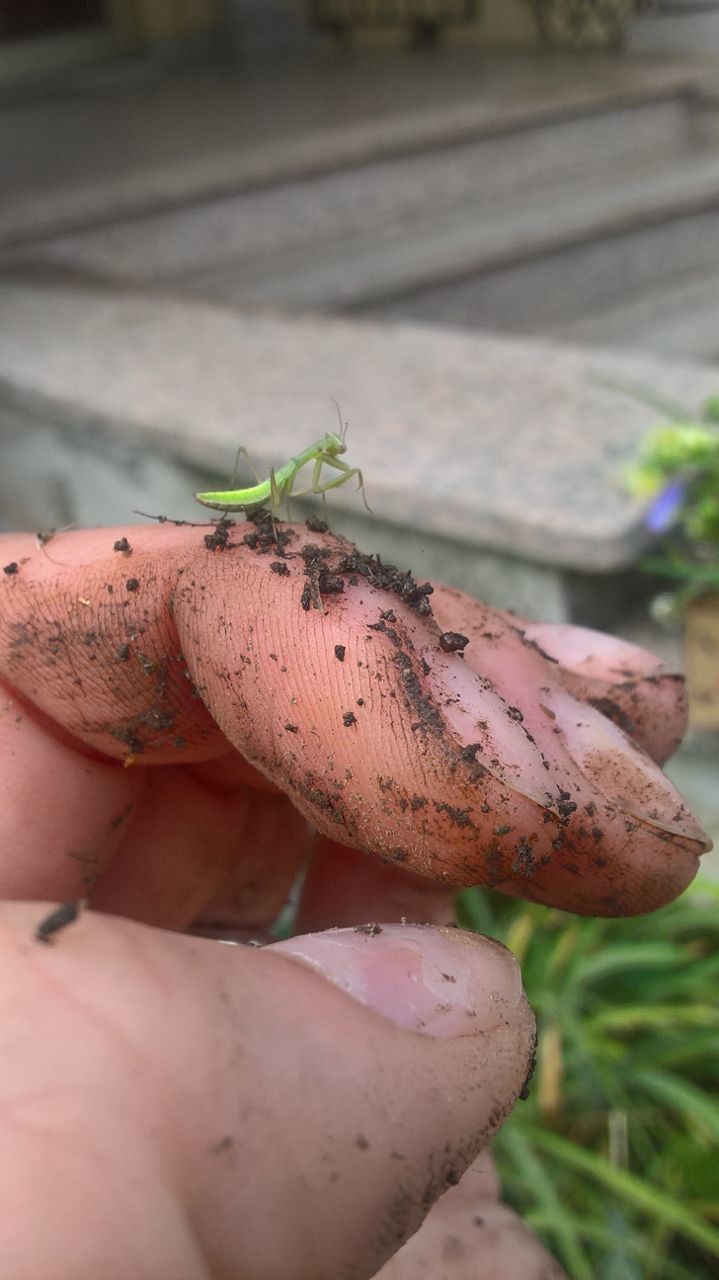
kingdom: Animalia
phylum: Arthropoda
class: Insecta
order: Mantodea
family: Mantidae
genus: Mantis
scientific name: Mantis religiosa
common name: Praying mantis
